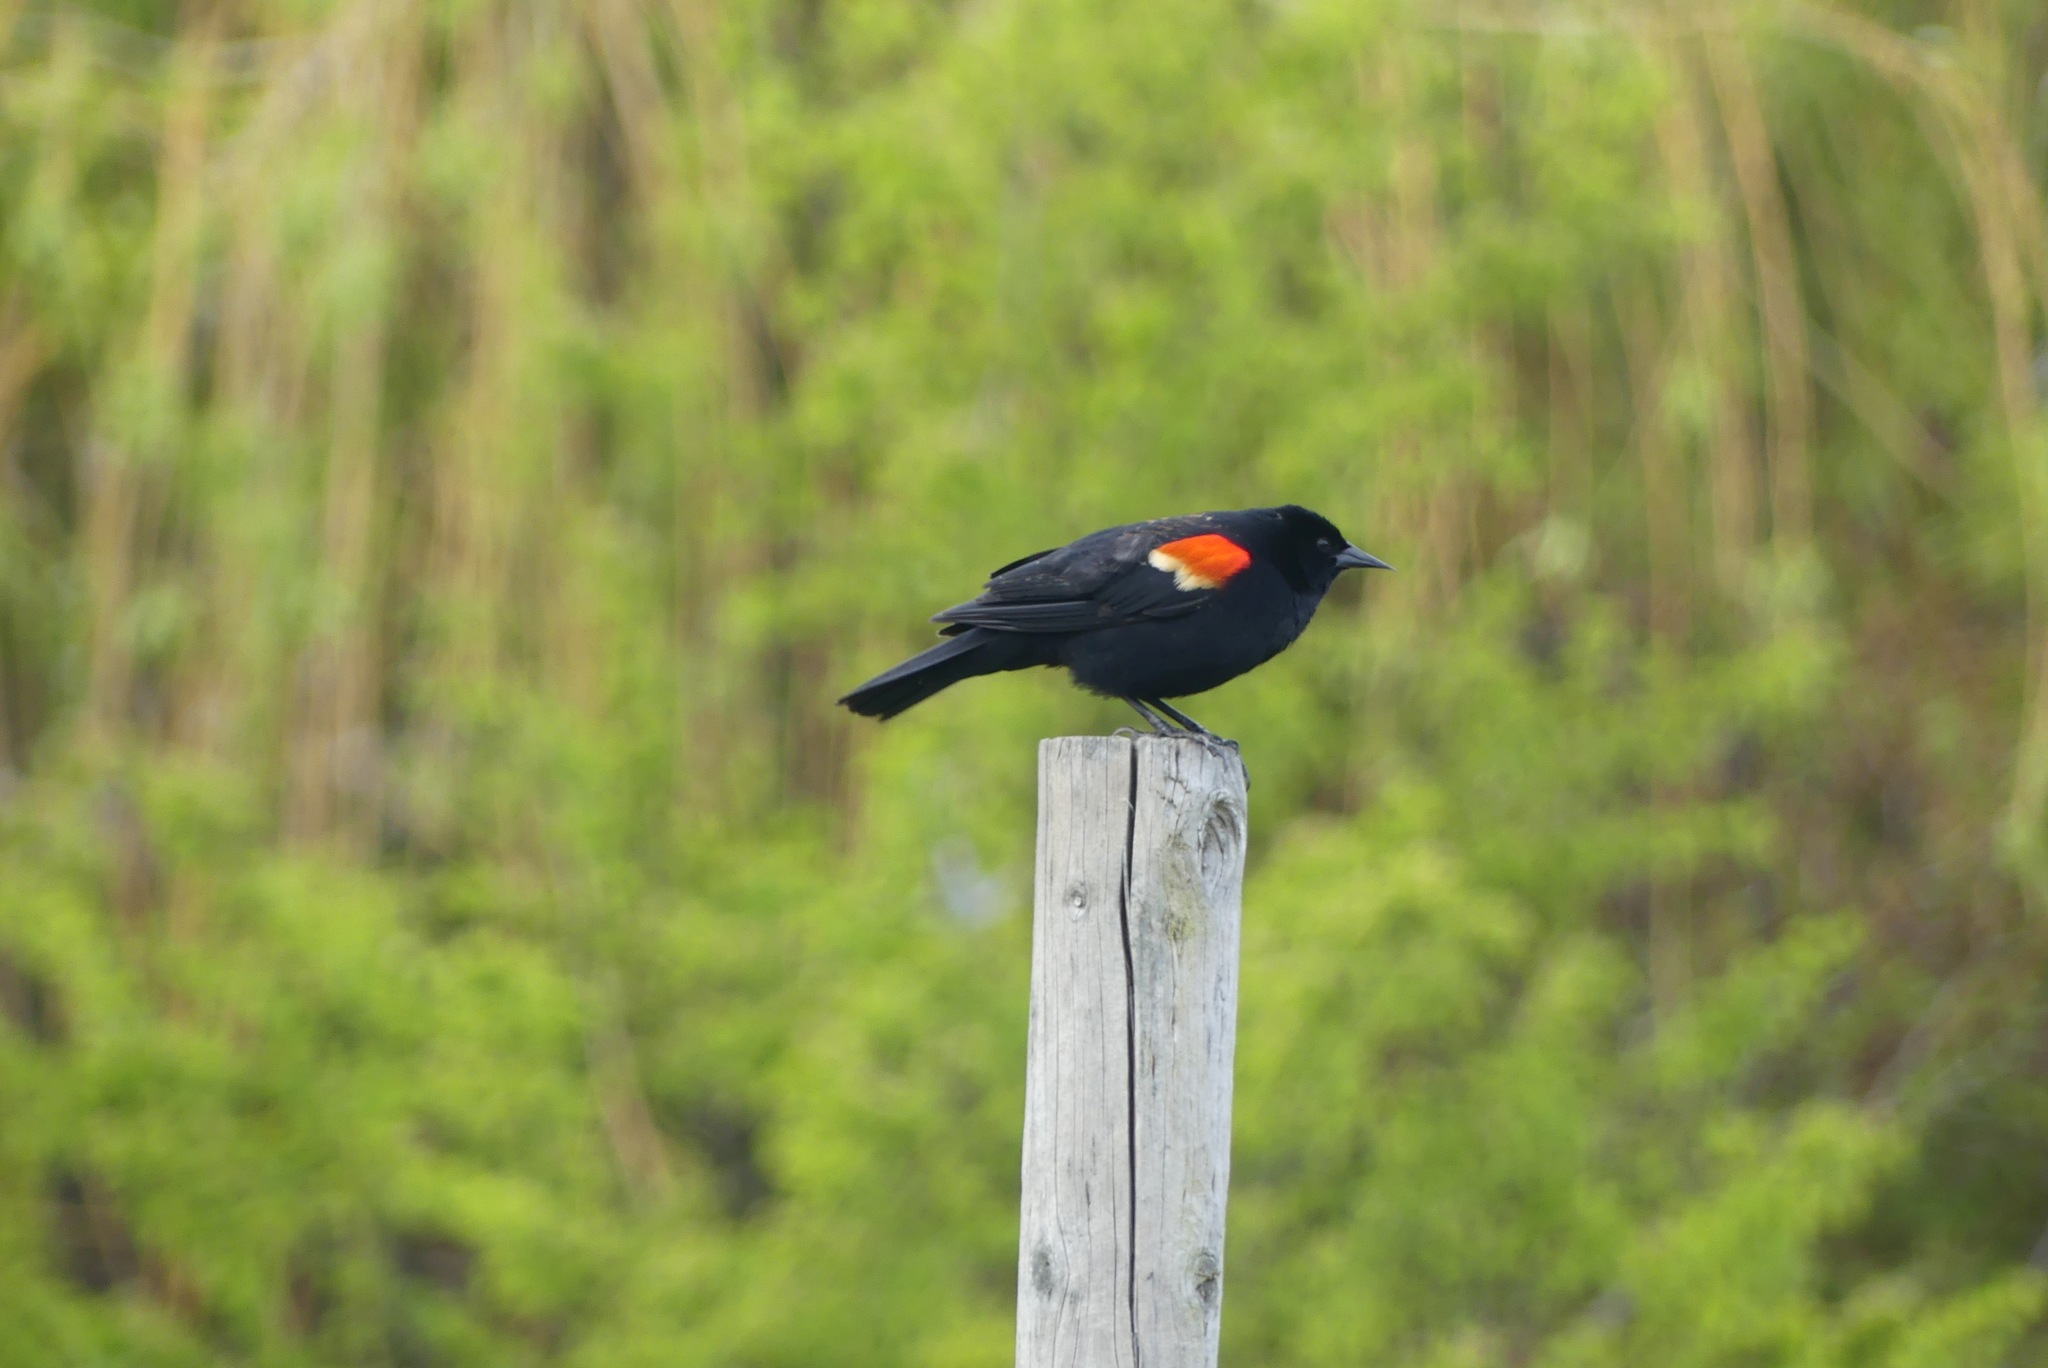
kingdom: Animalia
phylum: Chordata
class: Aves
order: Passeriformes
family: Icteridae
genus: Agelaius
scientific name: Agelaius phoeniceus
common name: Red-winged blackbird
